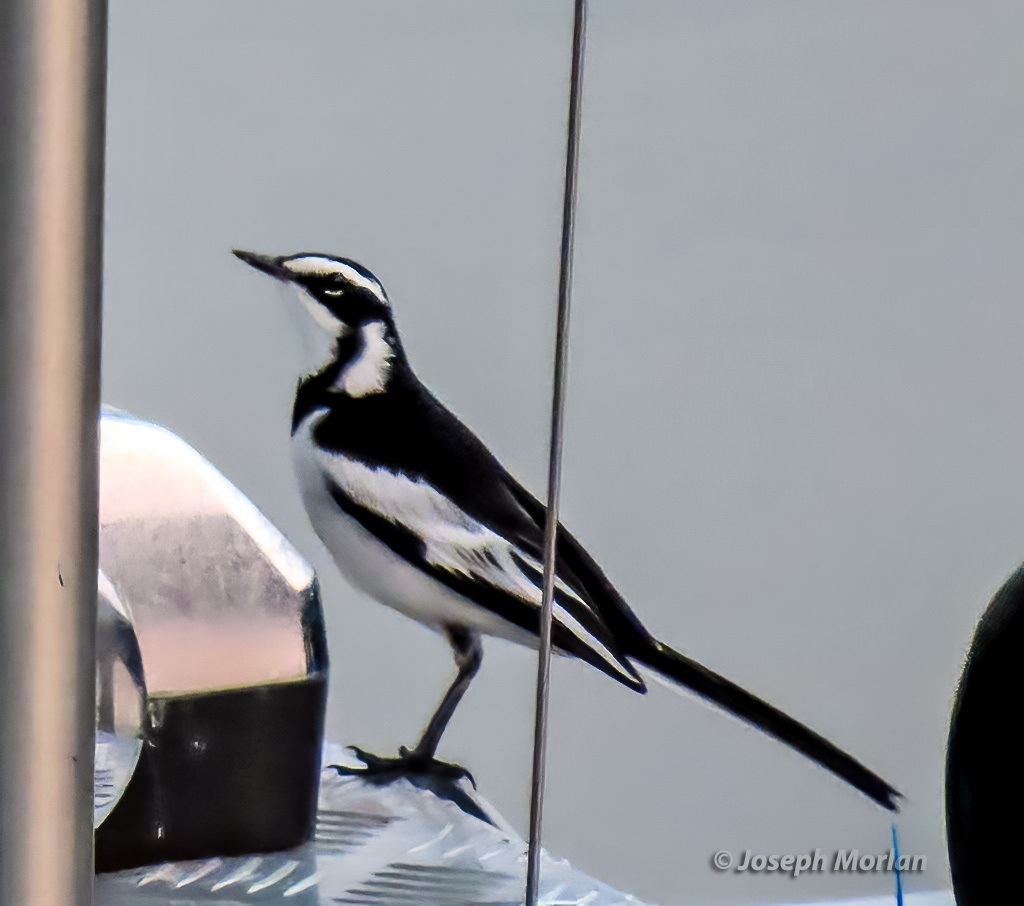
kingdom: Animalia
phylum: Chordata
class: Aves
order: Passeriformes
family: Motacillidae
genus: Motacilla
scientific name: Motacilla aguimp
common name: African pied wagtail
